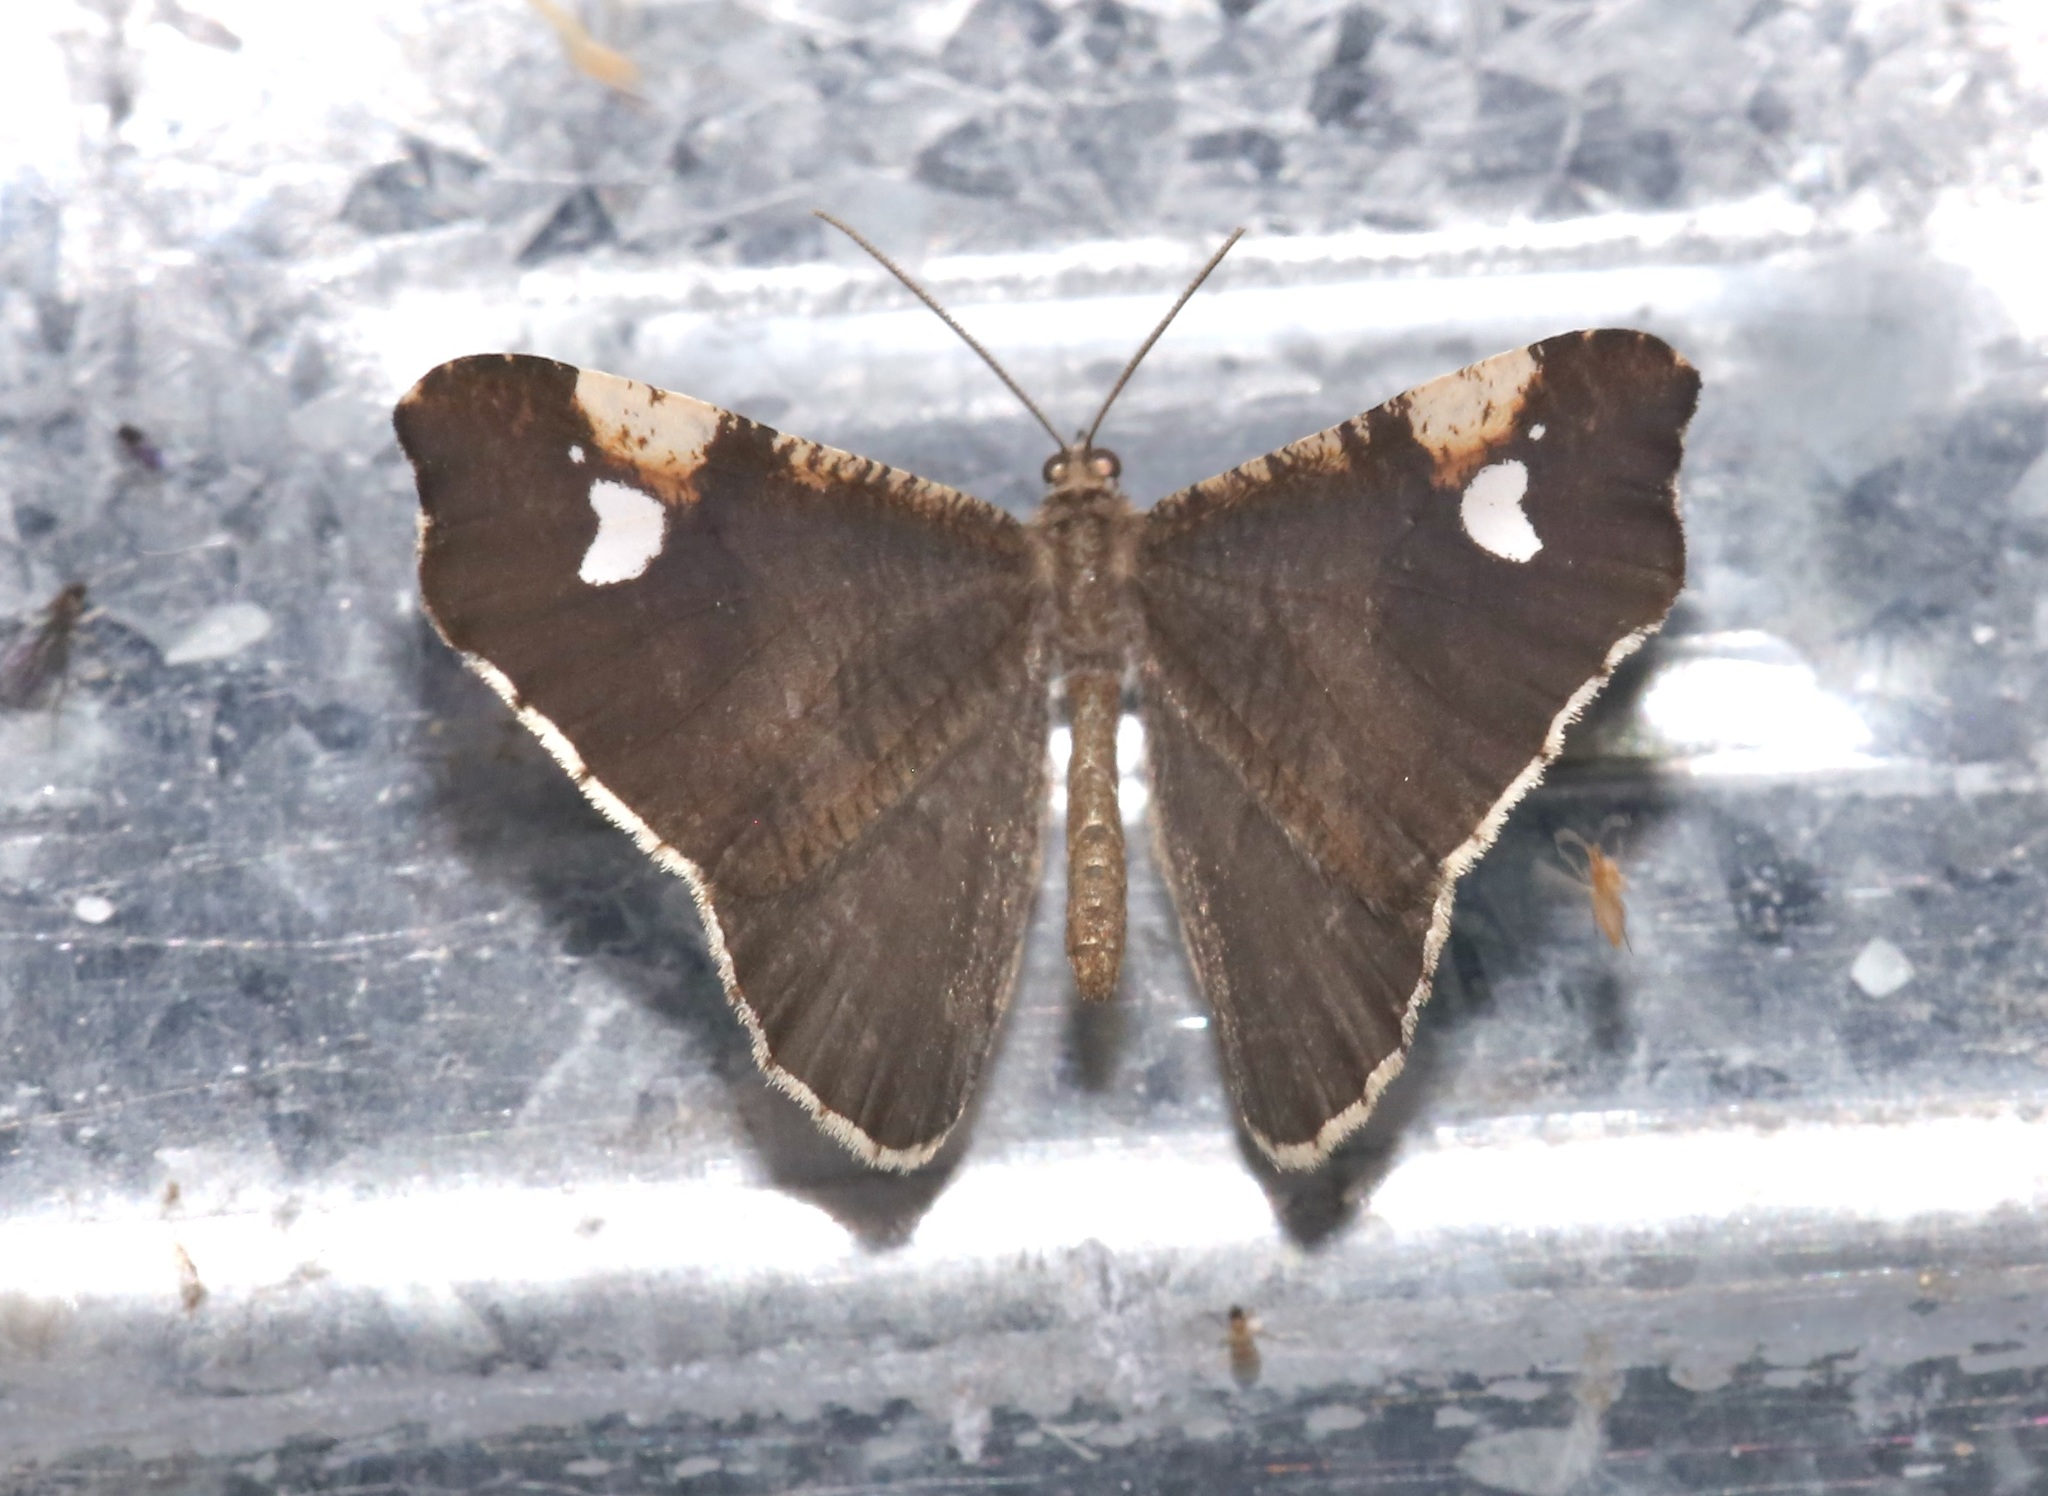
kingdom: Animalia
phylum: Arthropoda
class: Insecta
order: Lepidoptera
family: Hedylidae
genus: Macrosoma
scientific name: Macrosoma subornata
